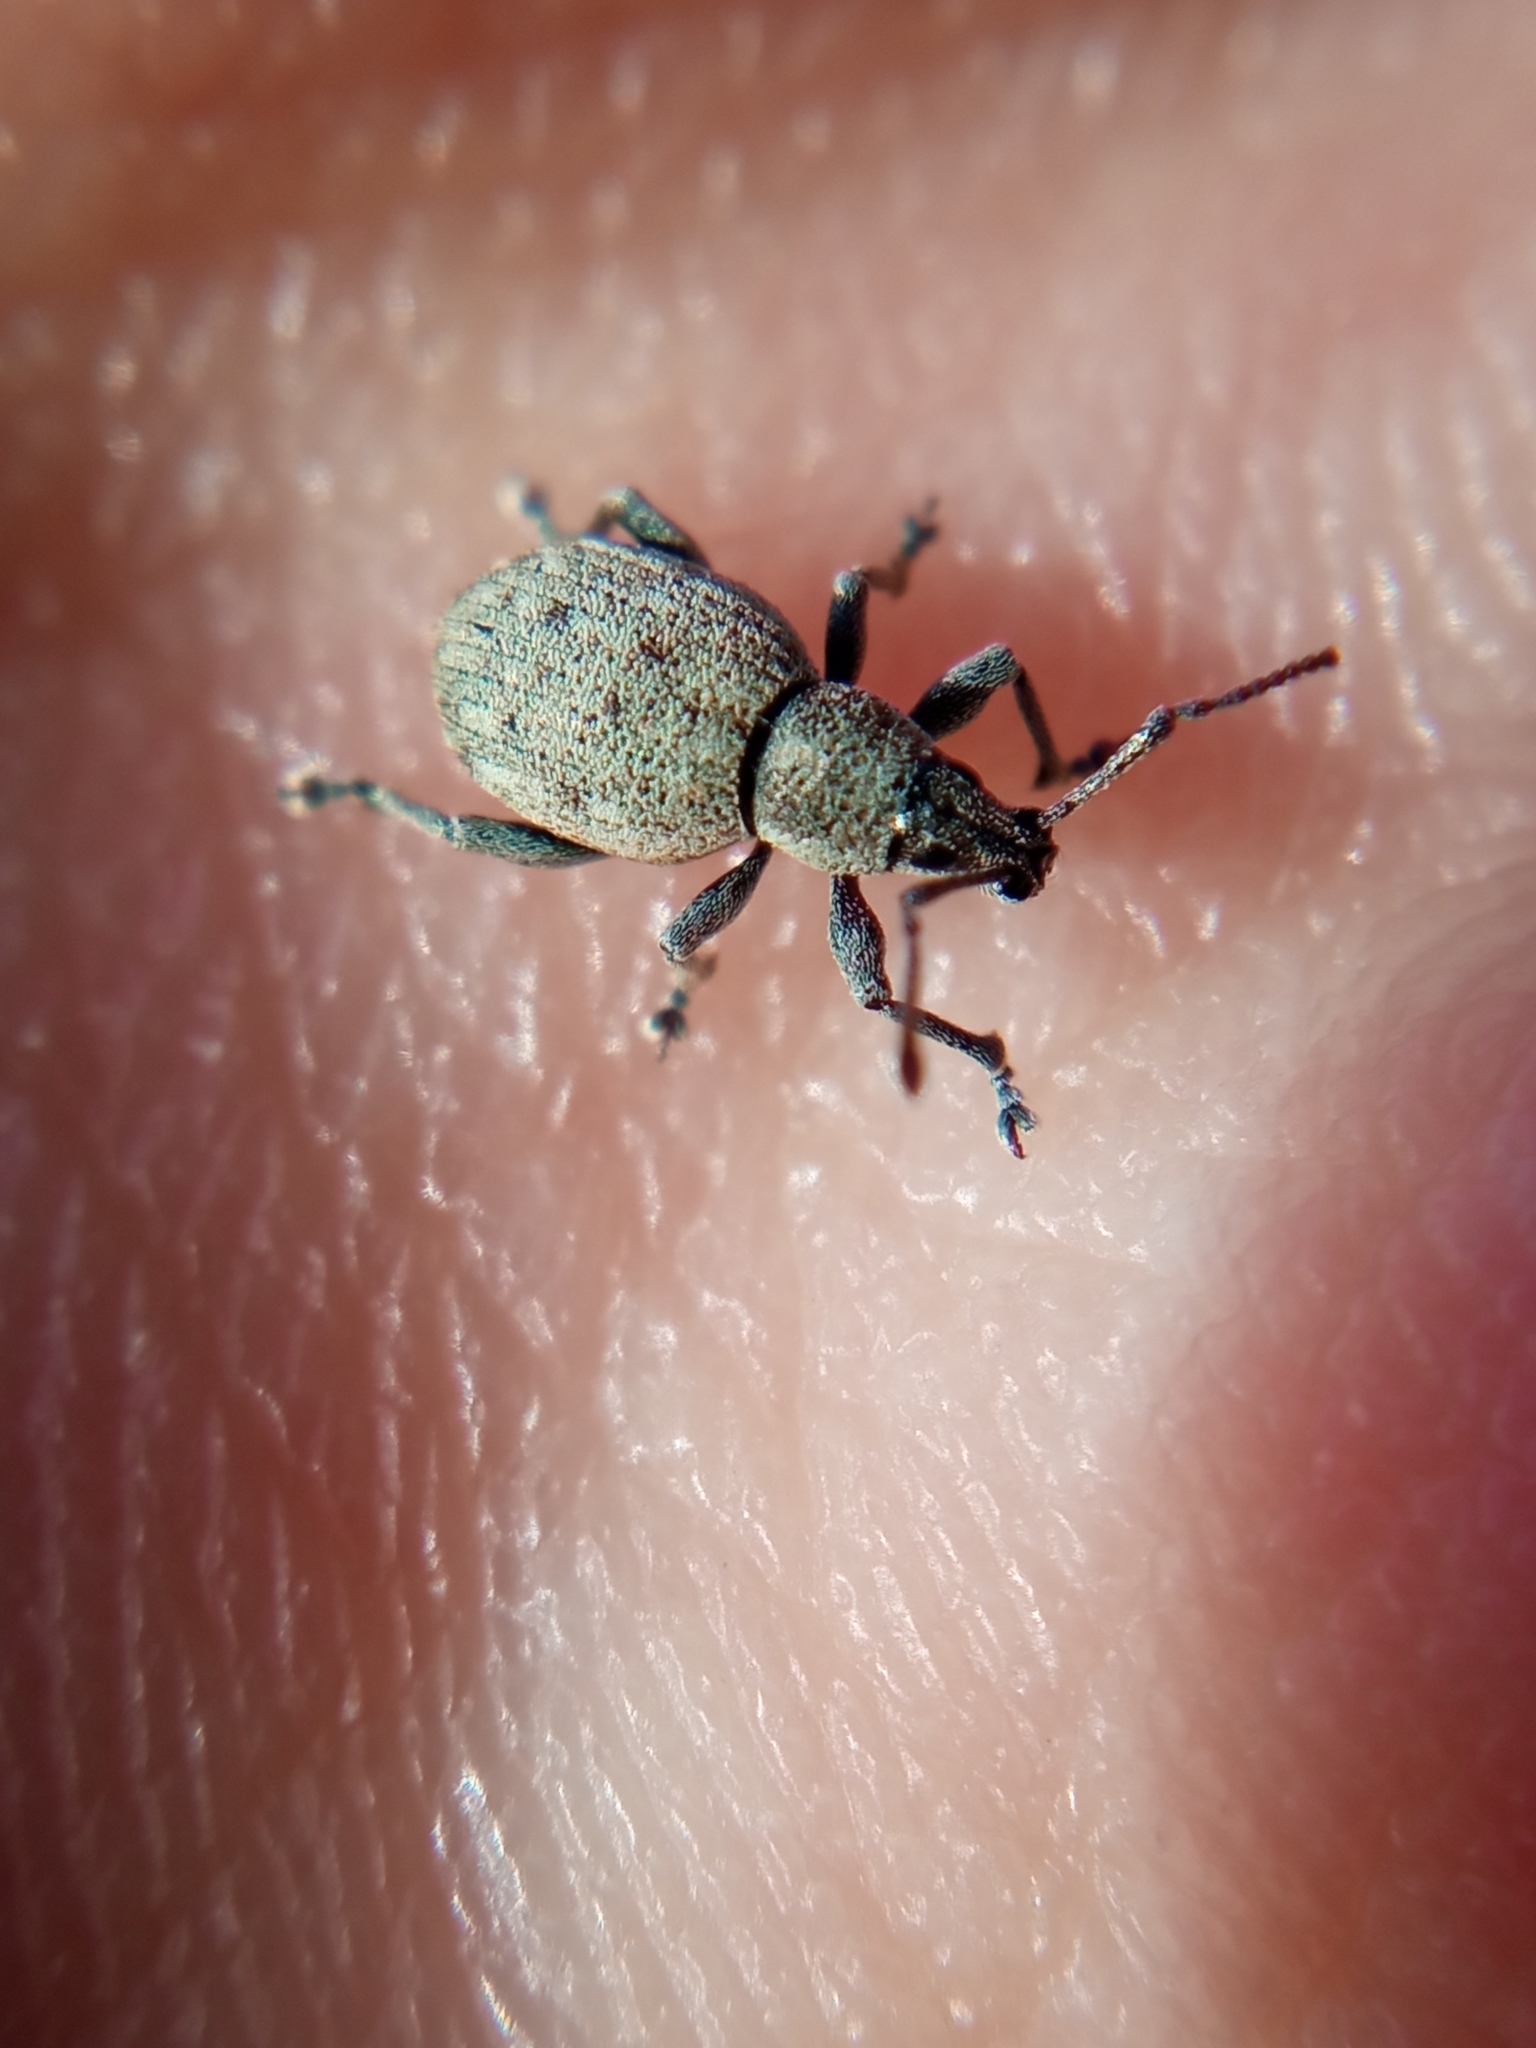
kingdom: Animalia
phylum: Arthropoda
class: Insecta
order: Coleoptera
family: Curculionidae
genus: Peritelus
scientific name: Peritelus sphaeroides
